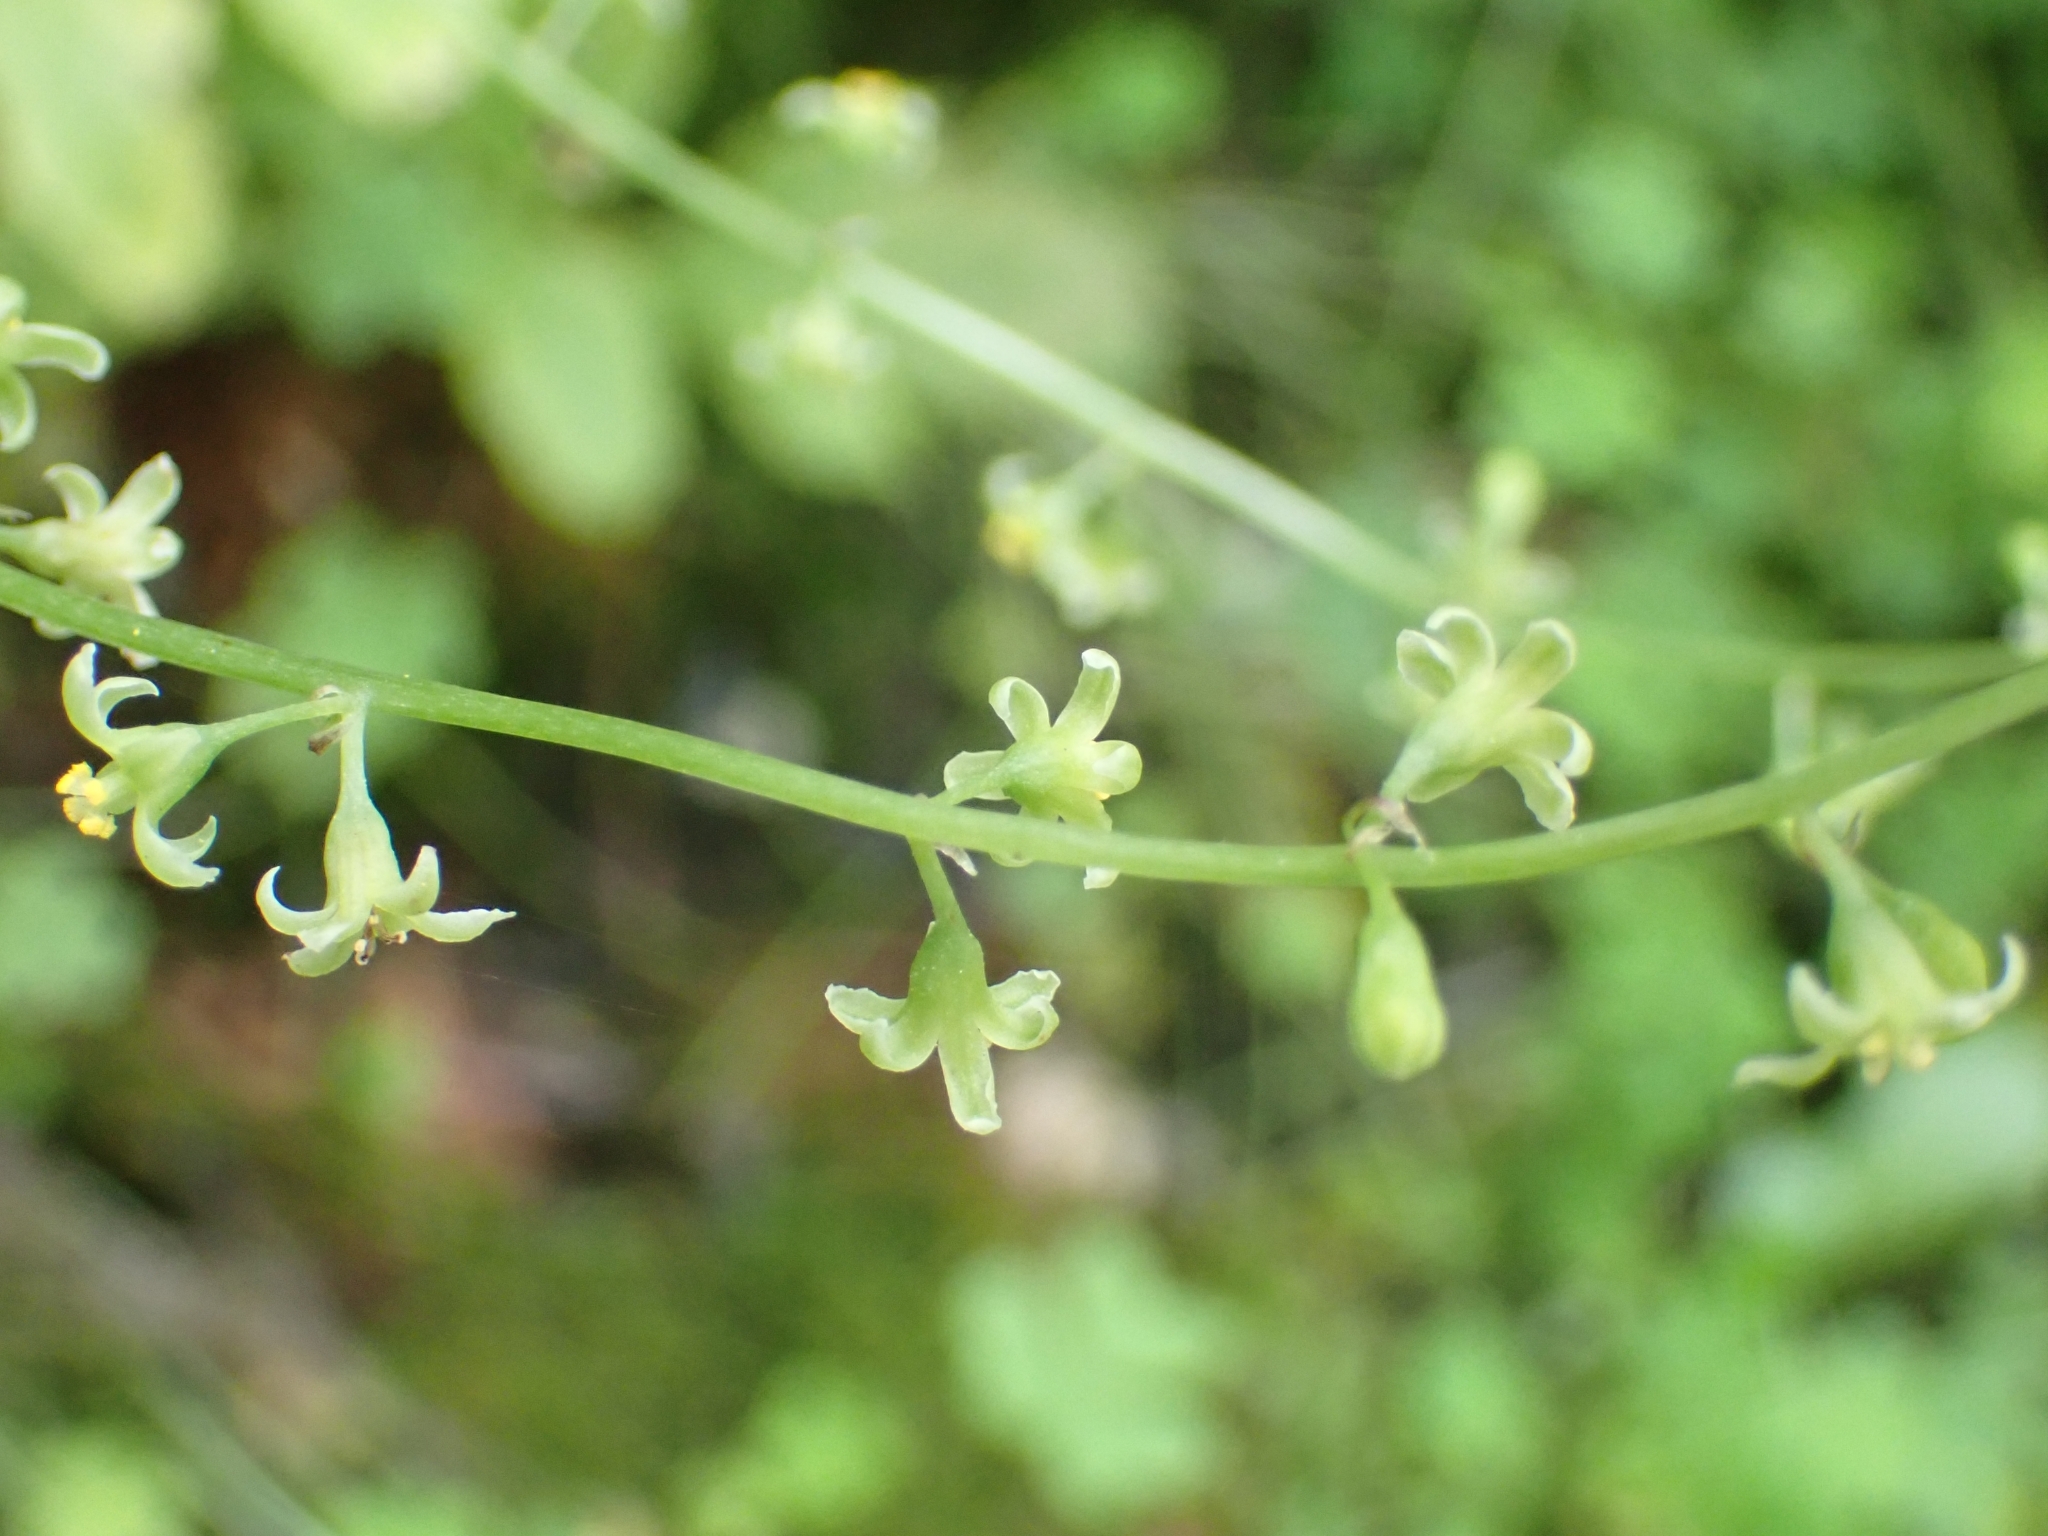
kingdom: Plantae
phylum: Tracheophyta
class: Liliopsida
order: Dioscoreales
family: Dioscoreaceae
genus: Dioscorea
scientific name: Dioscorea communis
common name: Black-bindweed
